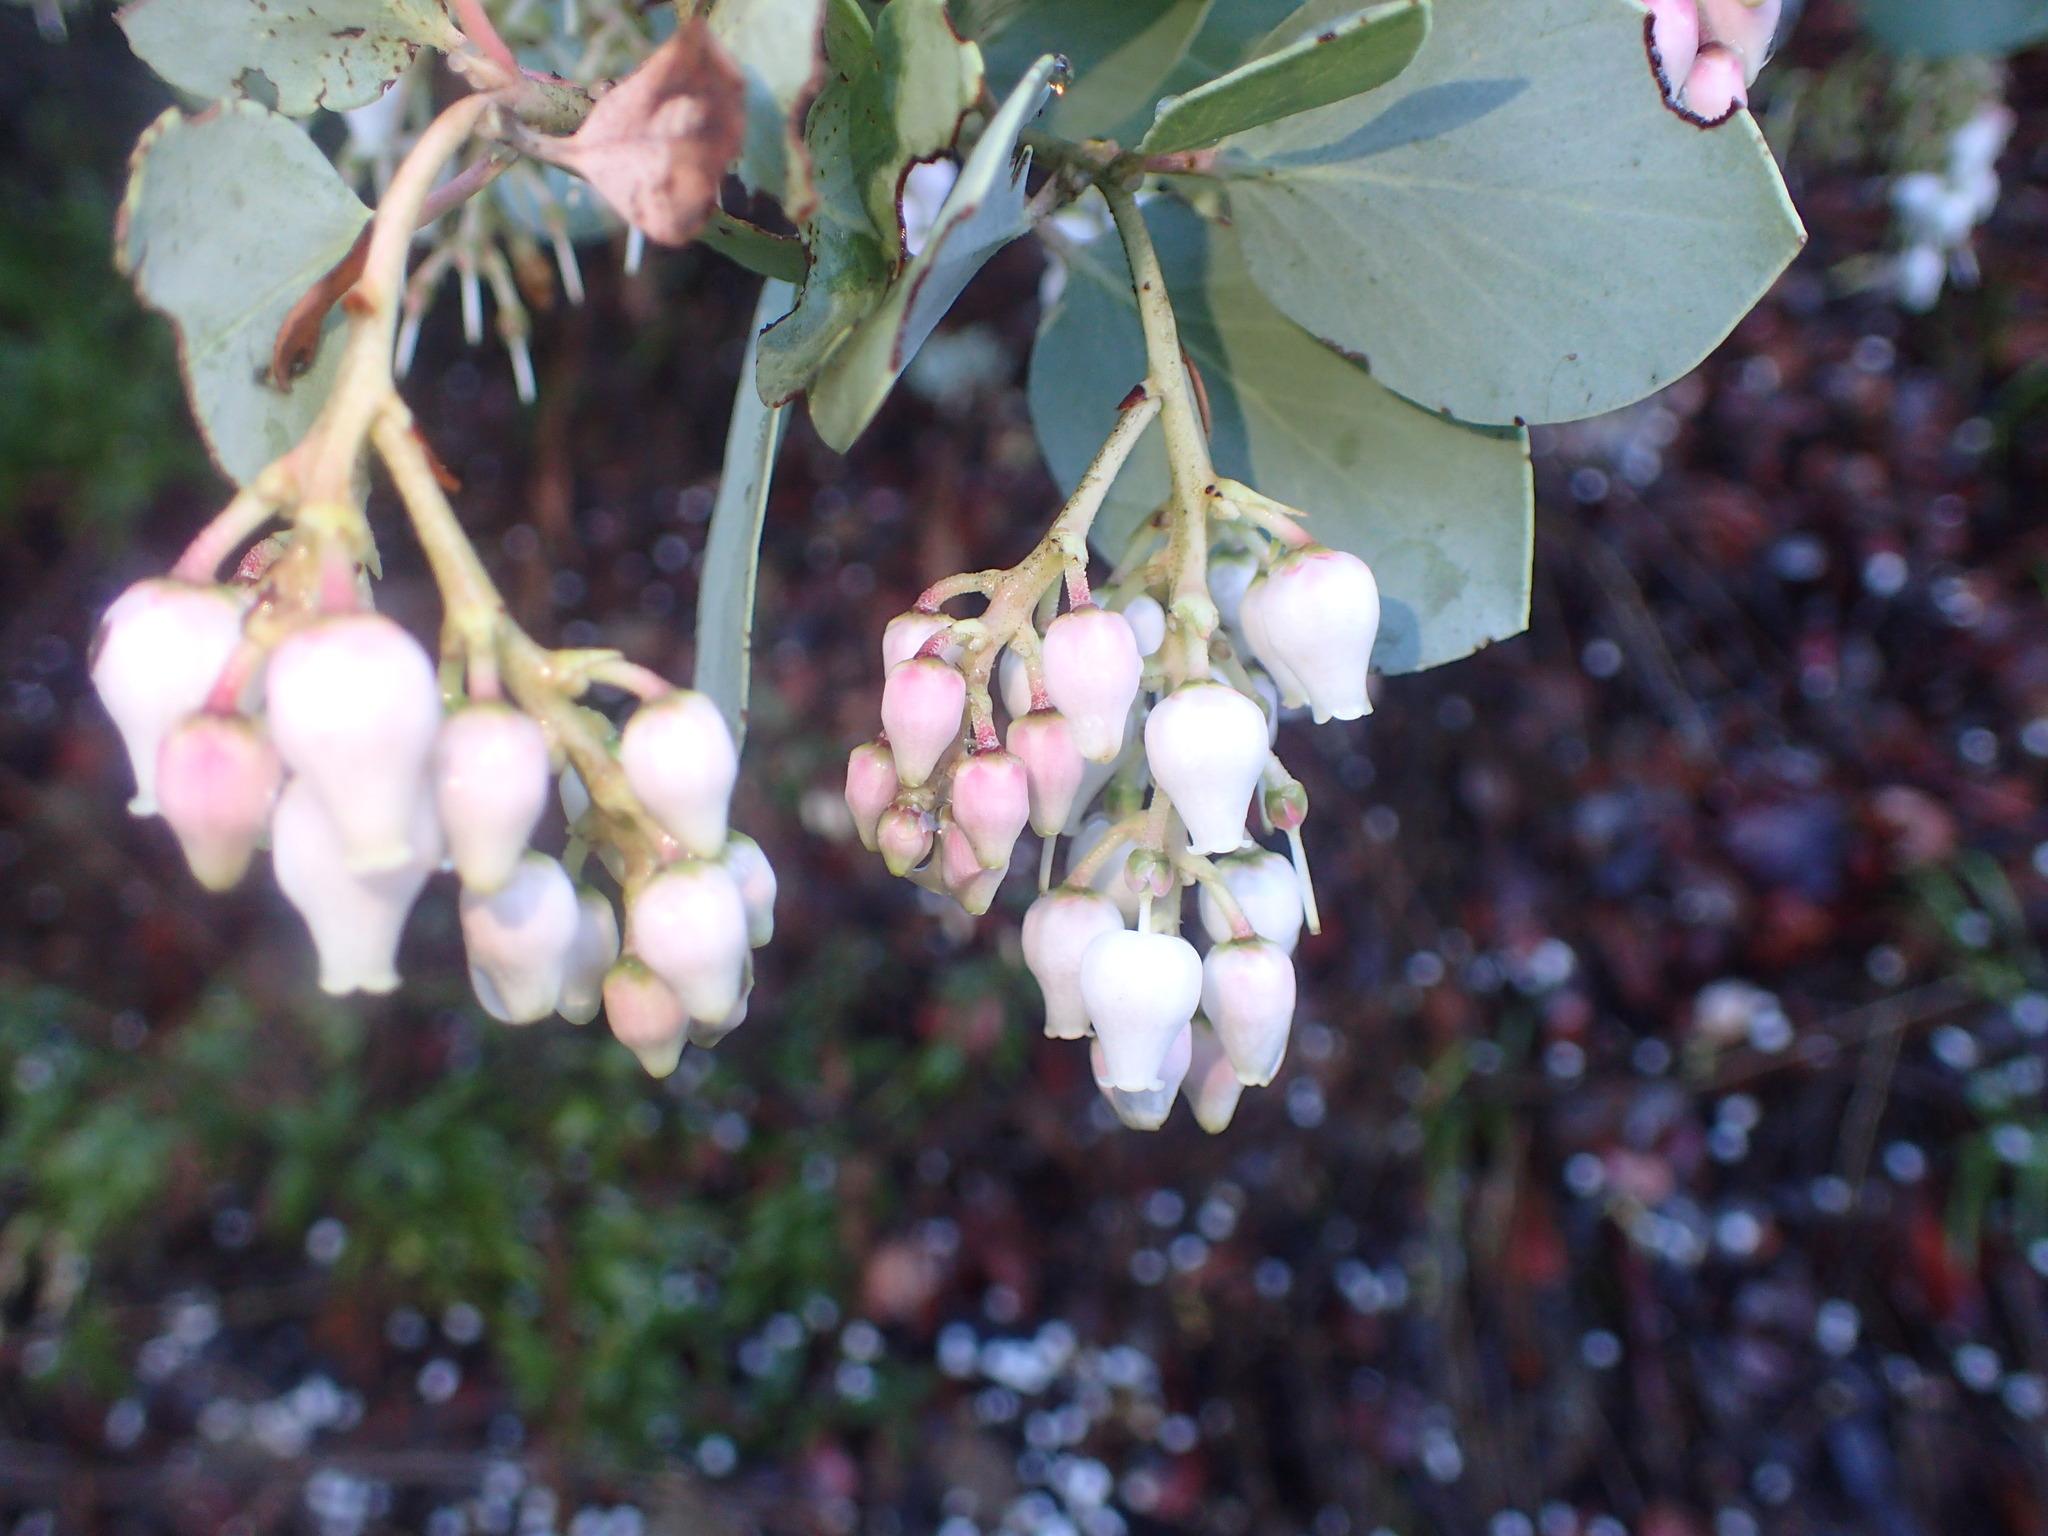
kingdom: Plantae
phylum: Tracheophyta
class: Magnoliopsida
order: Ericales
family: Ericaceae
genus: Arctostaphylos
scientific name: Arctostaphylos glauca
